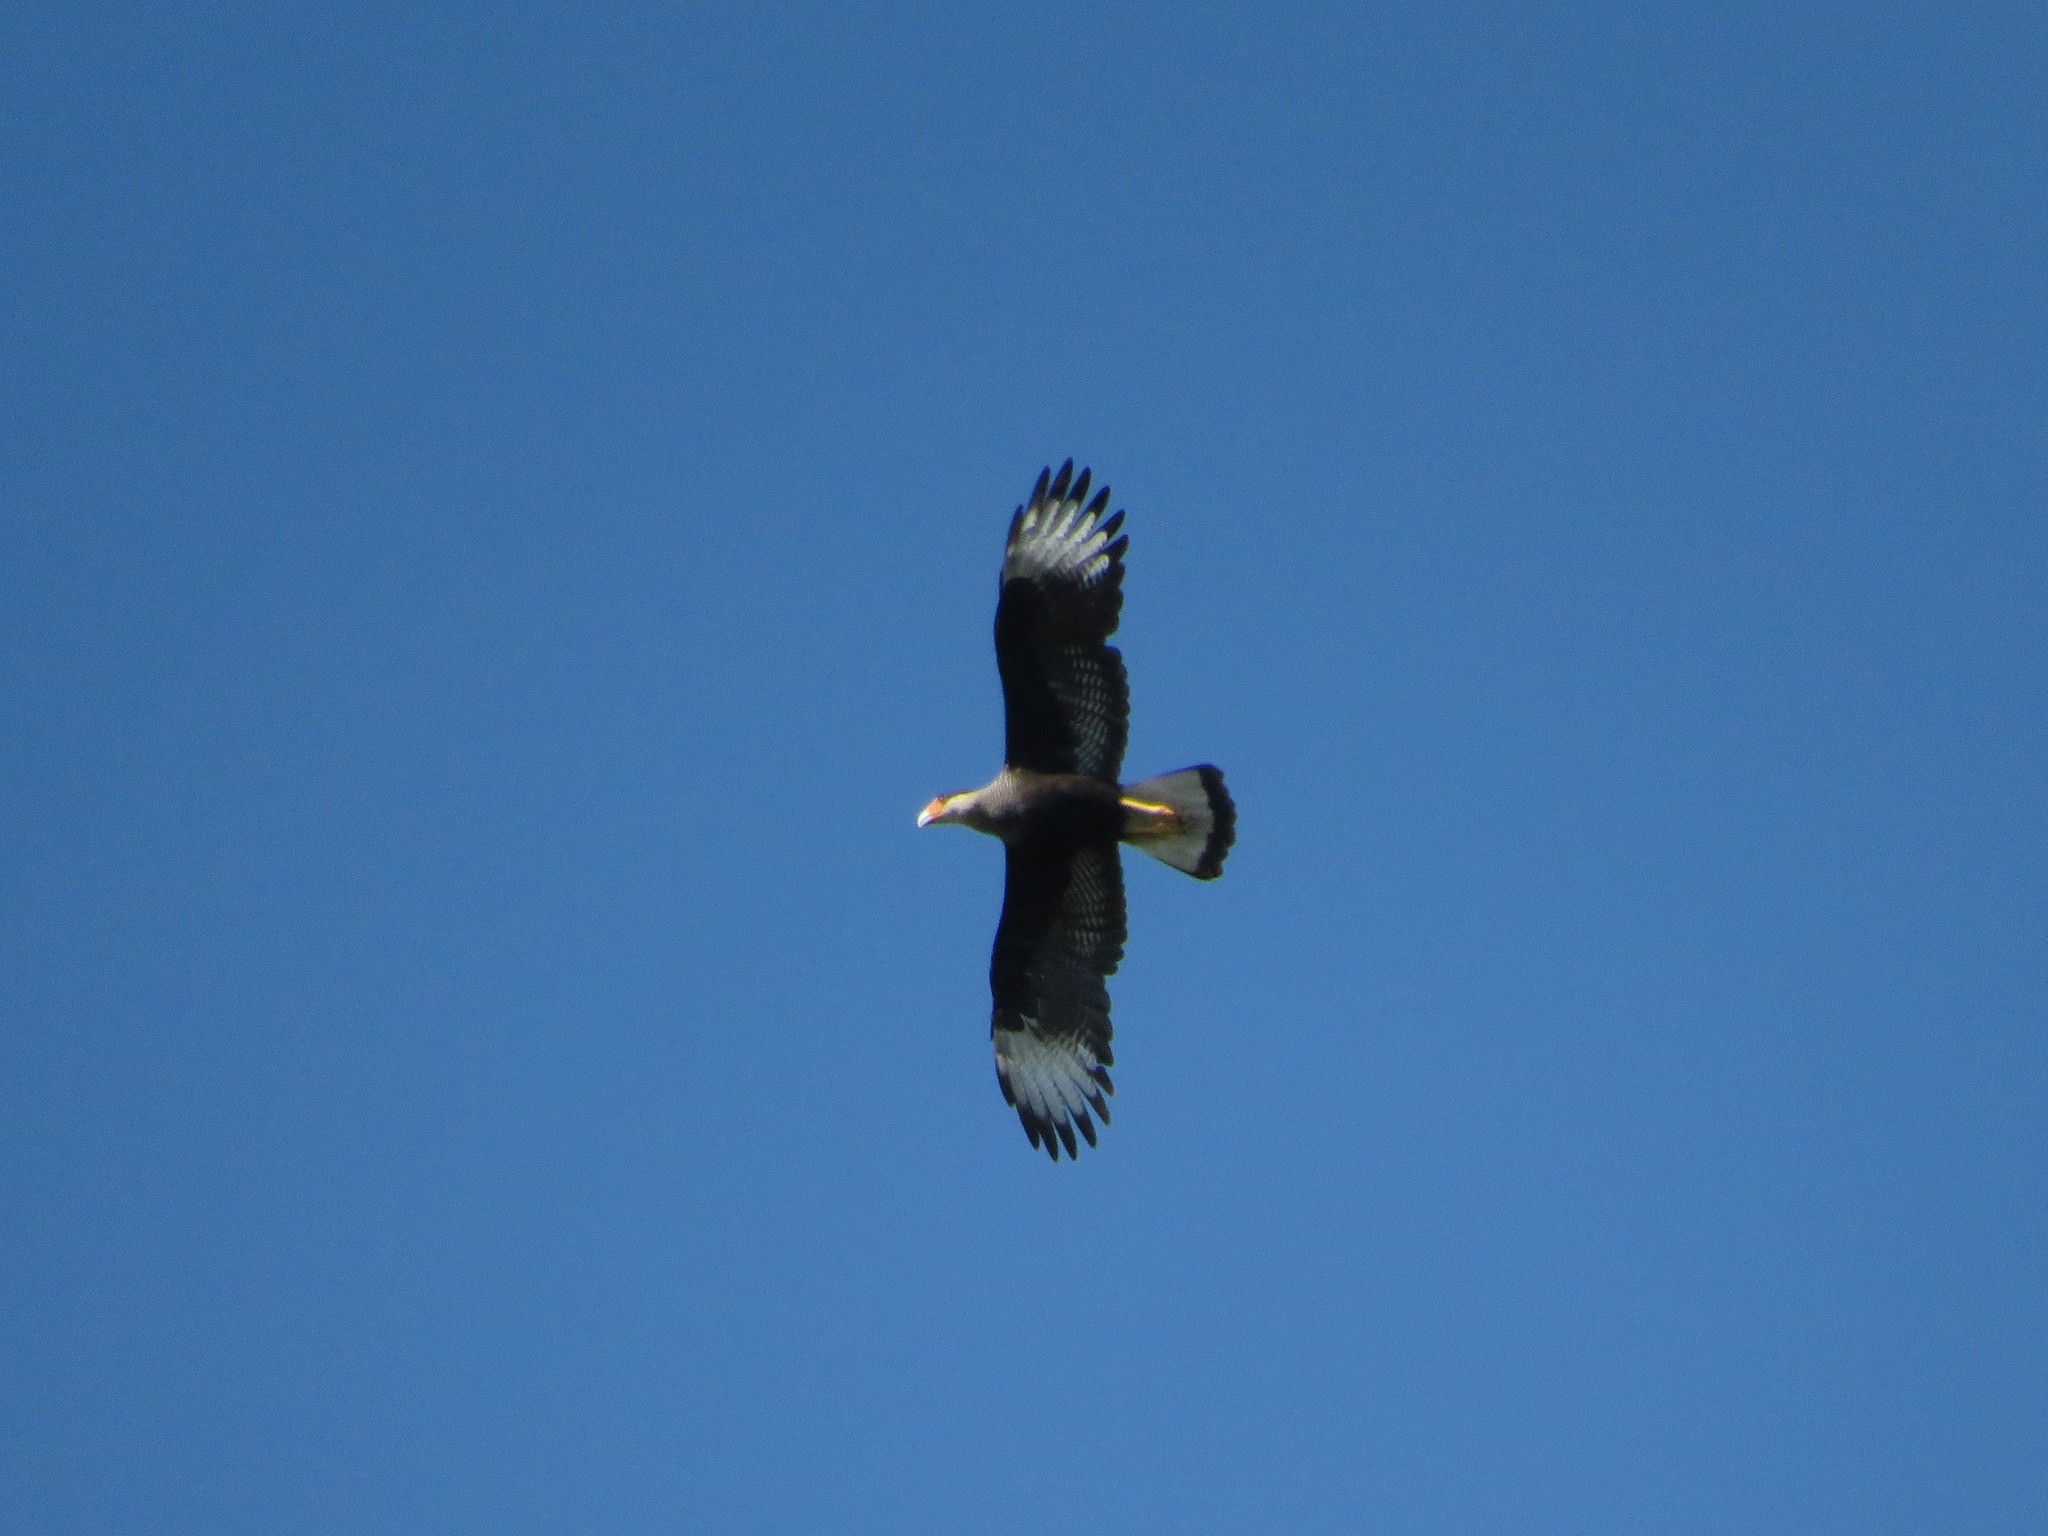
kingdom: Animalia
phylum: Chordata
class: Aves
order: Falconiformes
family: Falconidae
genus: Caracara
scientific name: Caracara plancus
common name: Southern caracara
